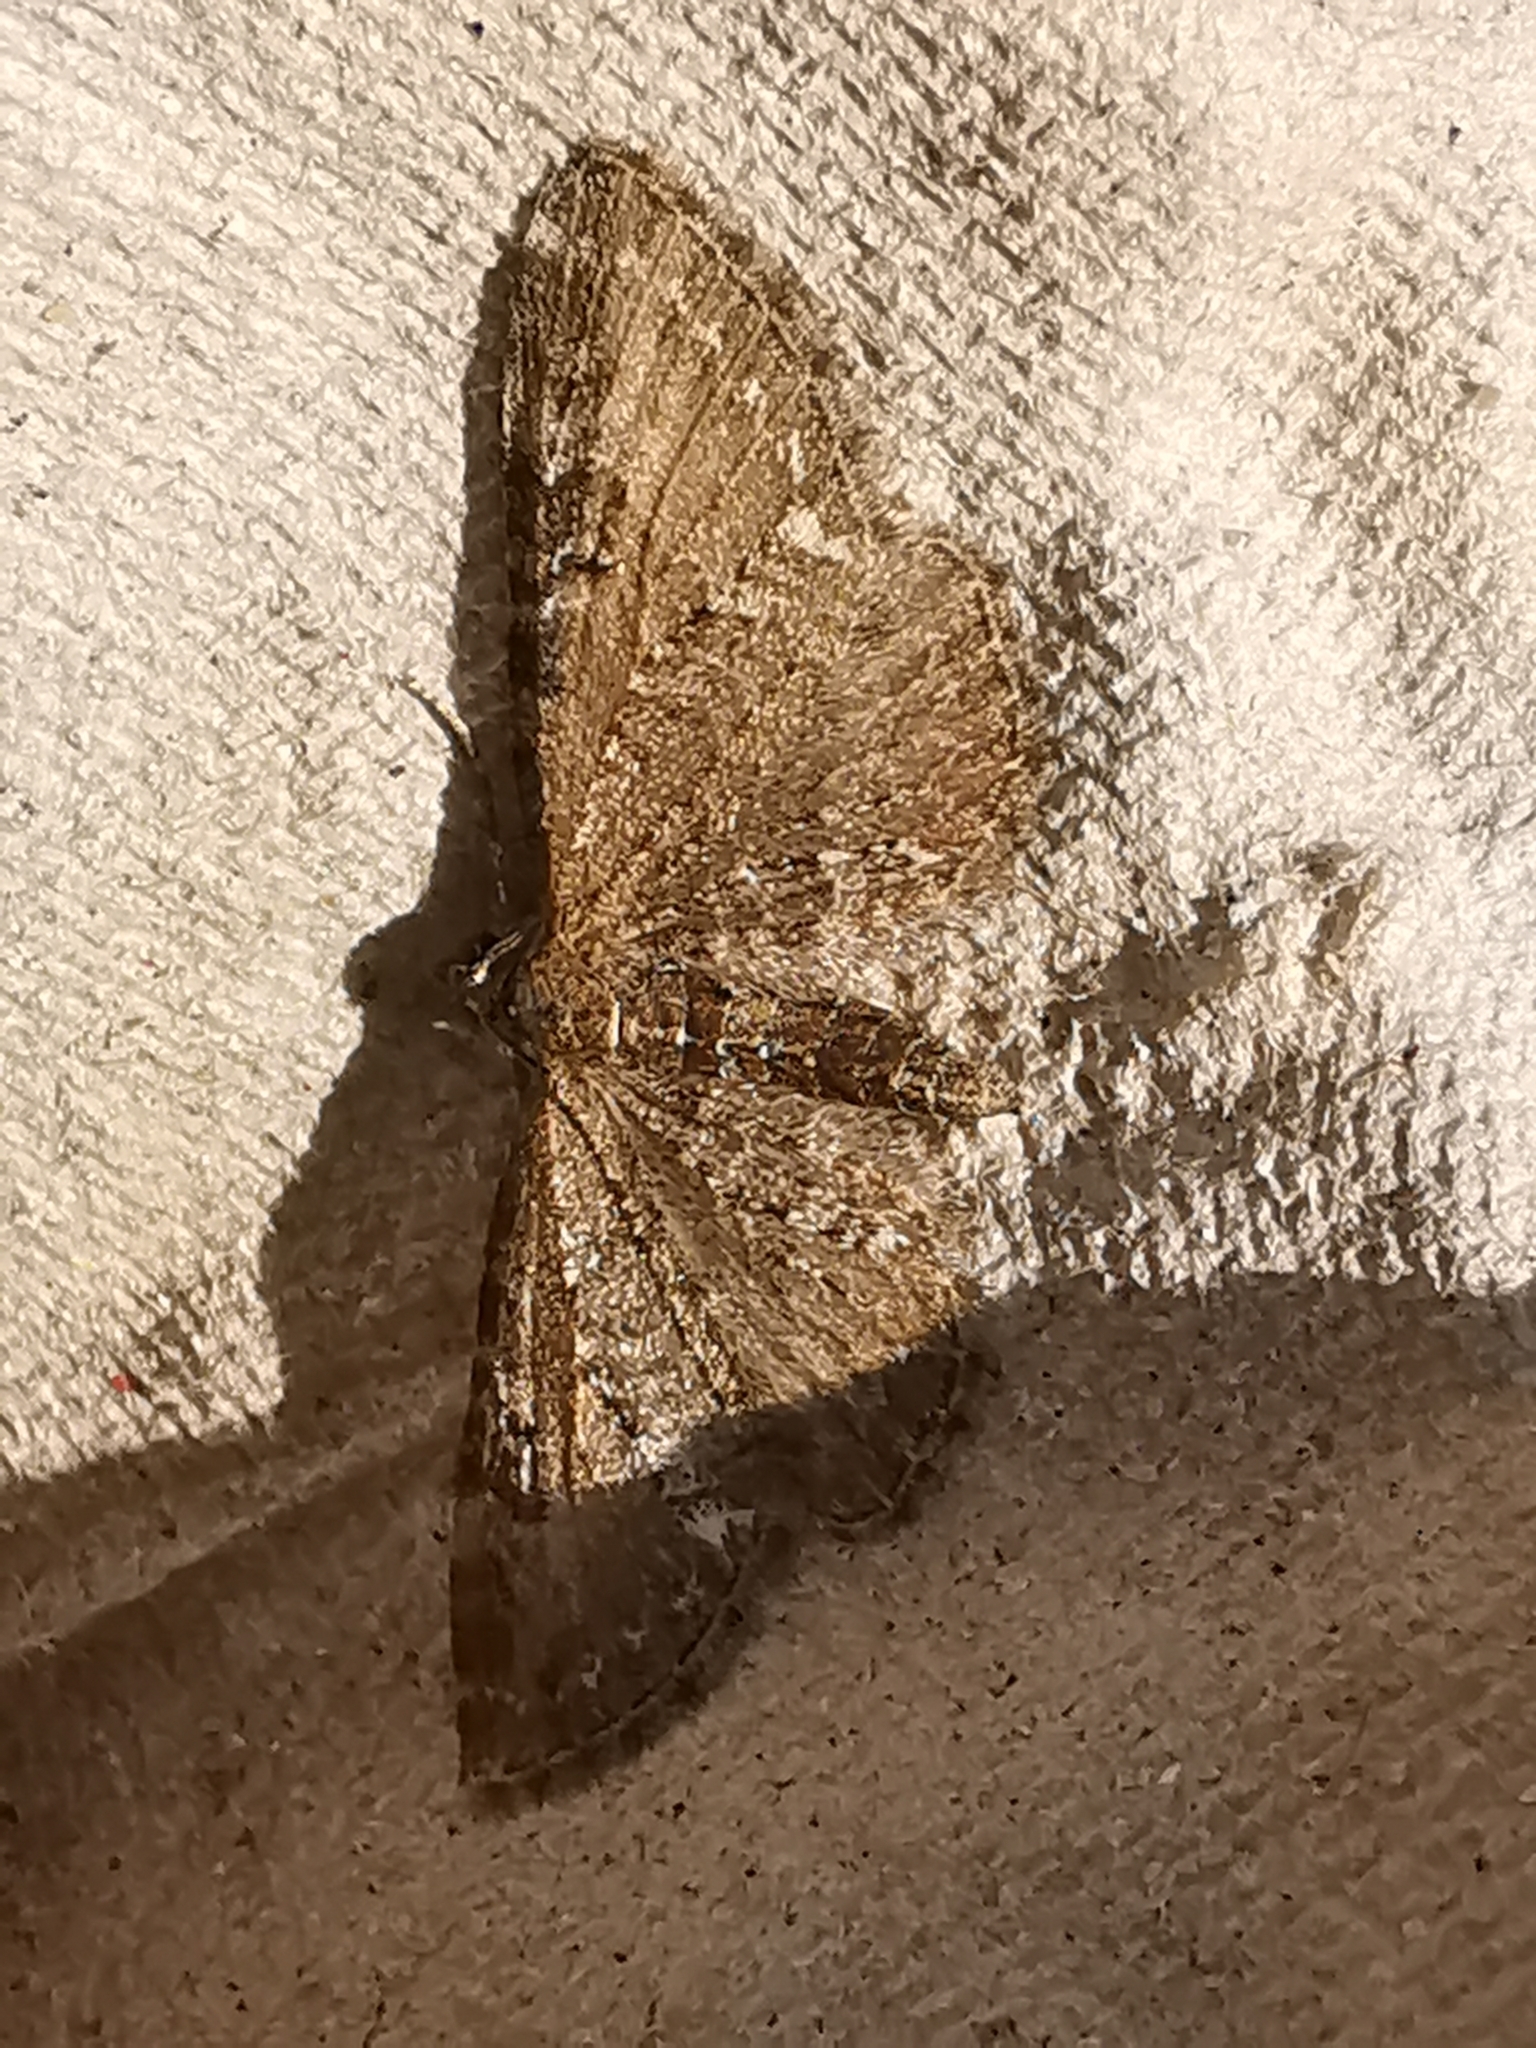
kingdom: Animalia
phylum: Arthropoda
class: Insecta
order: Lepidoptera
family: Geometridae
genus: Eupithecia
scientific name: Eupithecia vulgata
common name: Common pug
